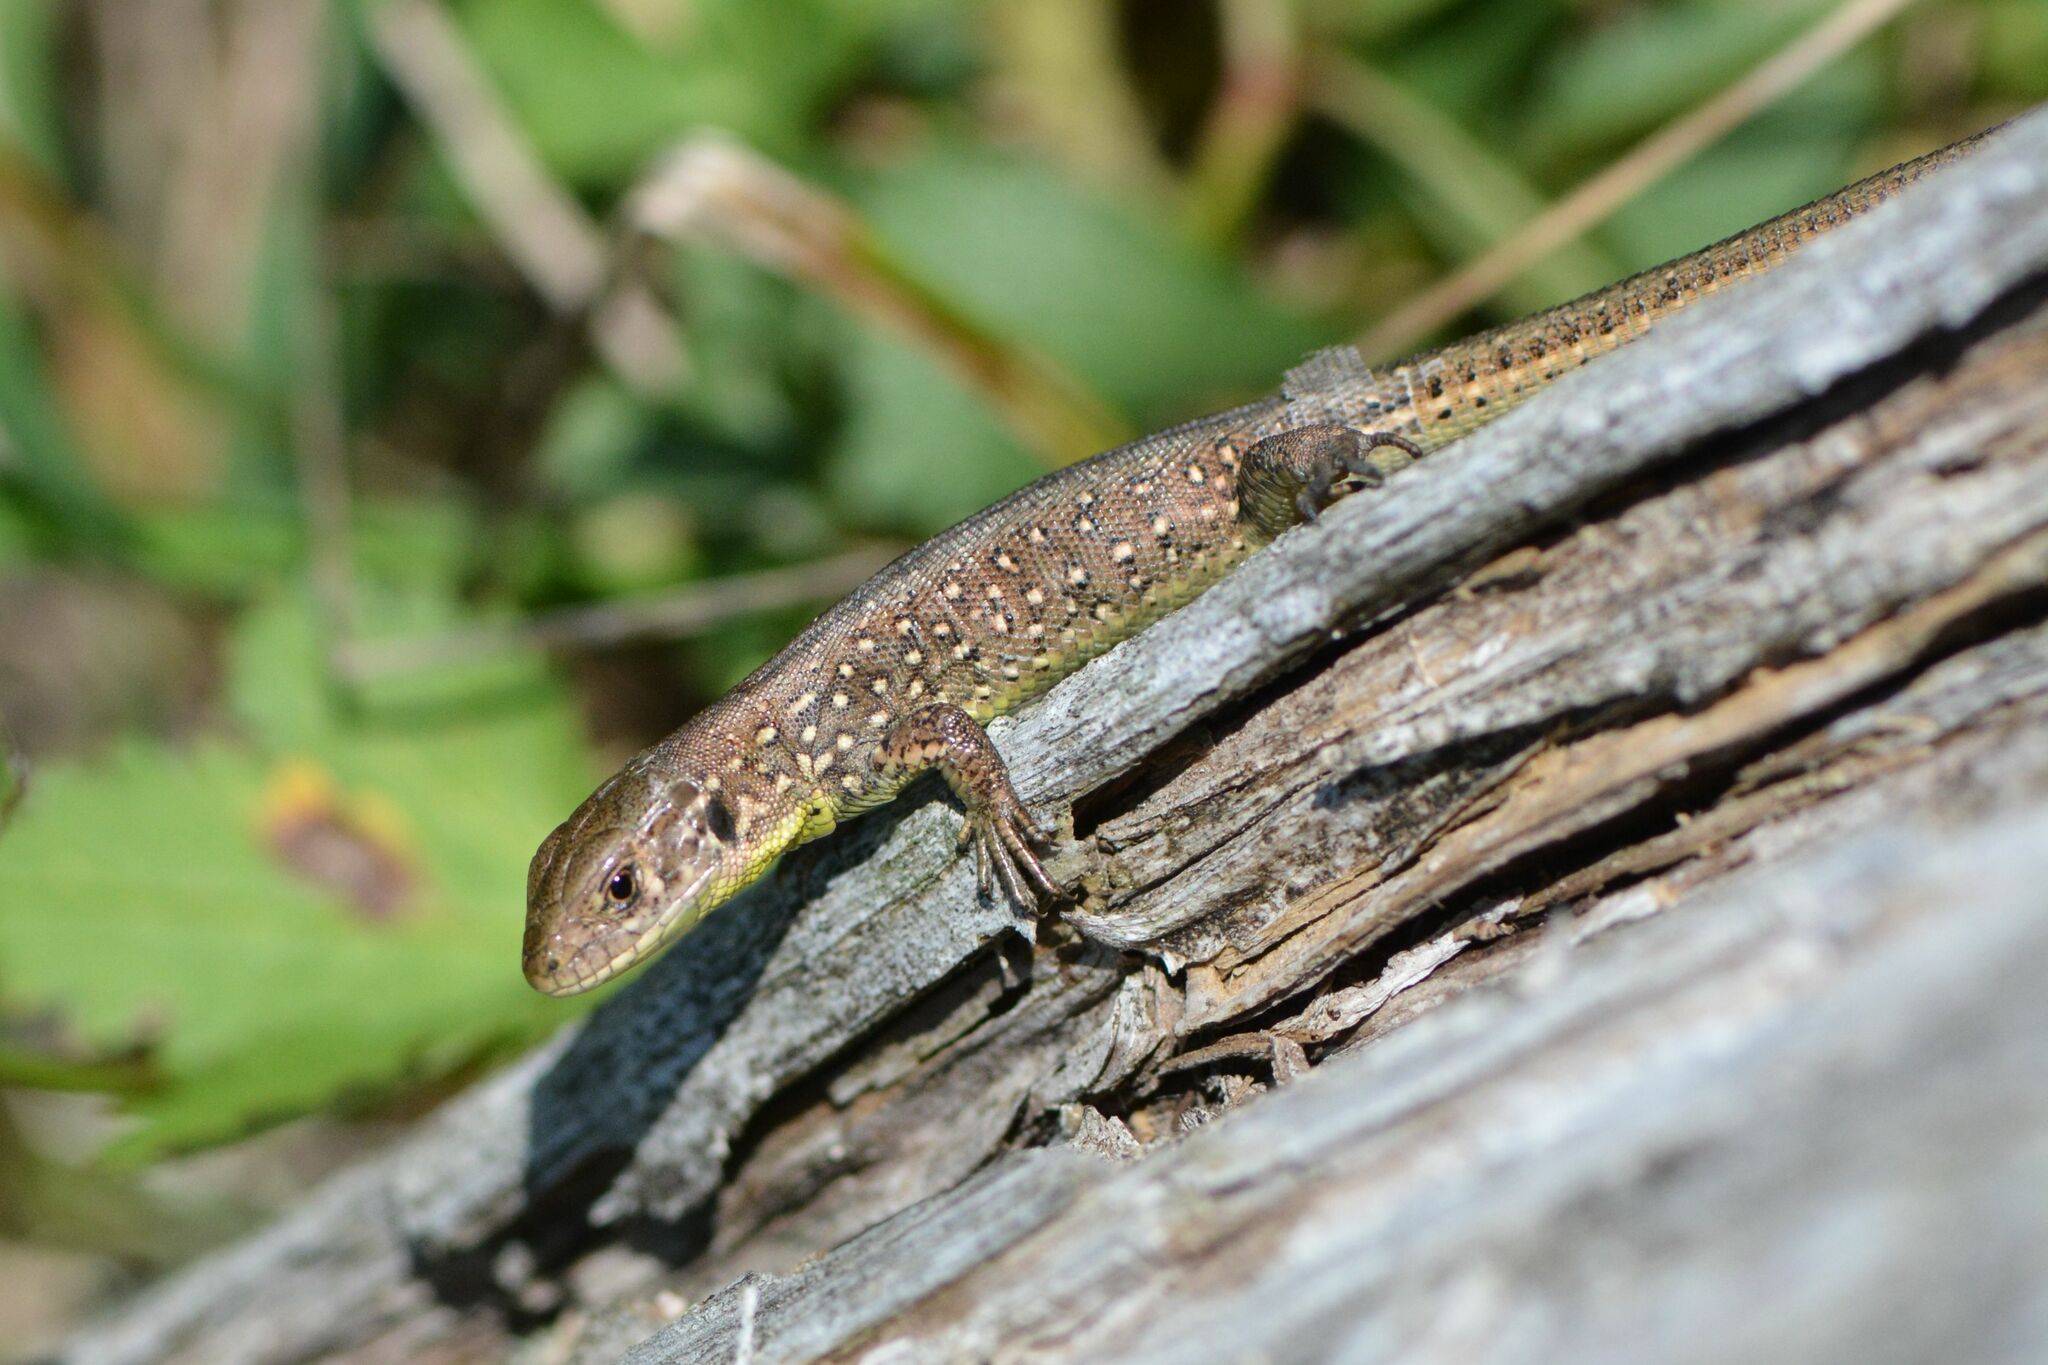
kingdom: Animalia
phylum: Chordata
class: Squamata
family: Lacertidae
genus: Lacerta
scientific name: Lacerta agilis
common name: Sand lizard
